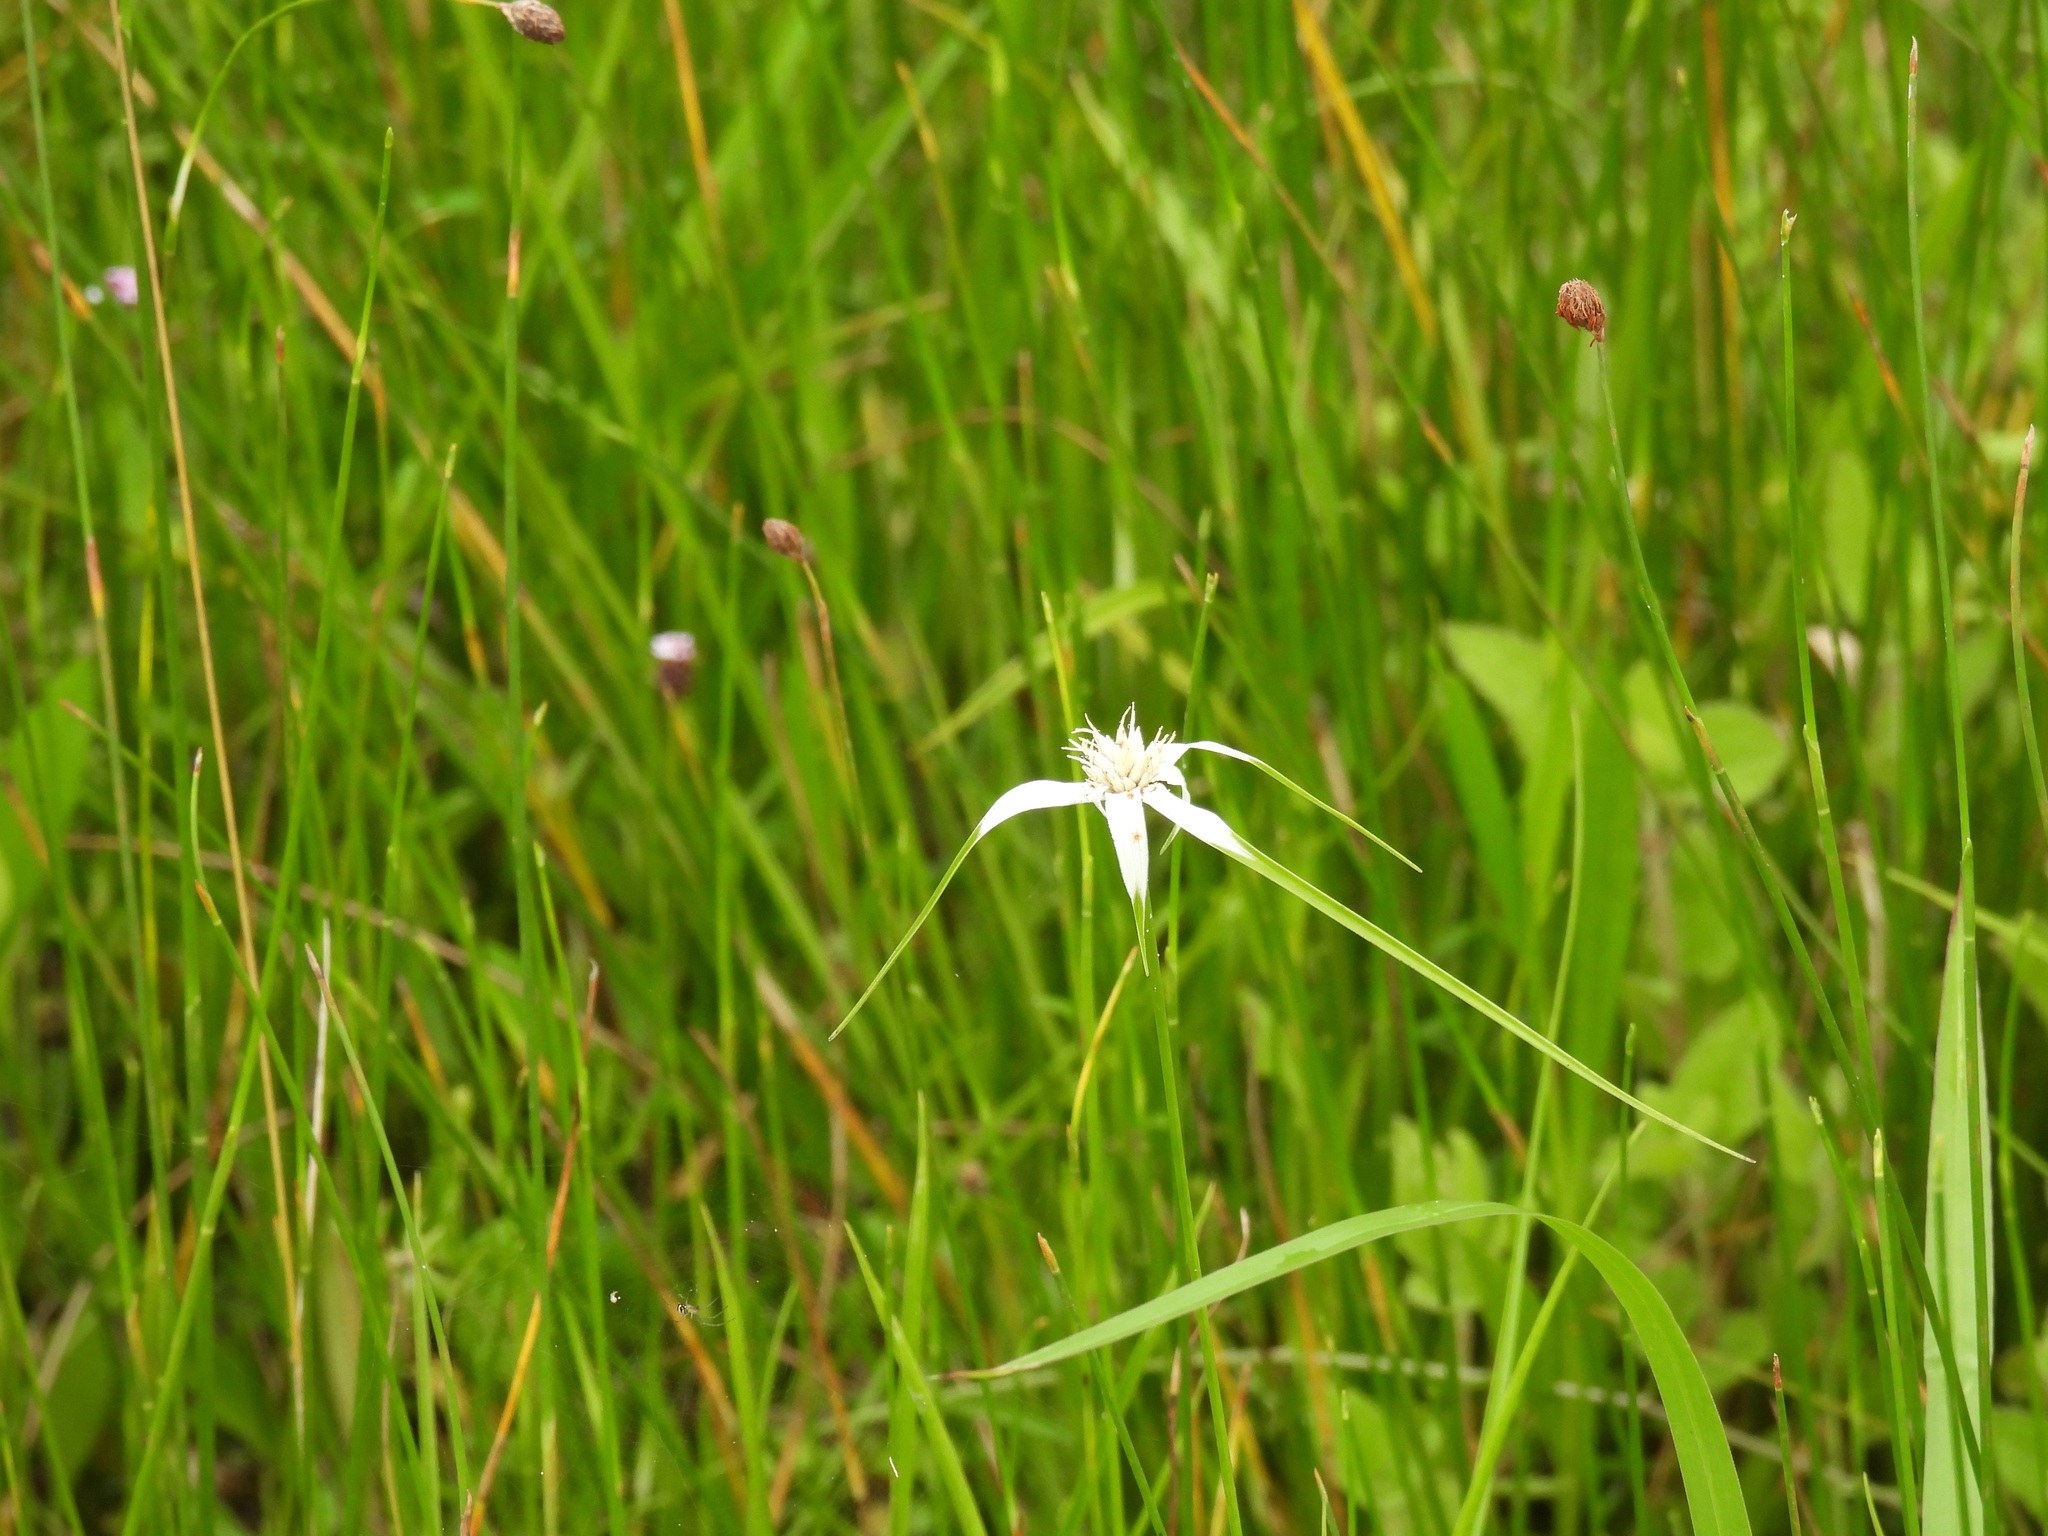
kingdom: Plantae
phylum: Tracheophyta
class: Liliopsida
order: Poales
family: Cyperaceae
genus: Rhynchospora
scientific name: Rhynchospora colorata
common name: Star sedge
